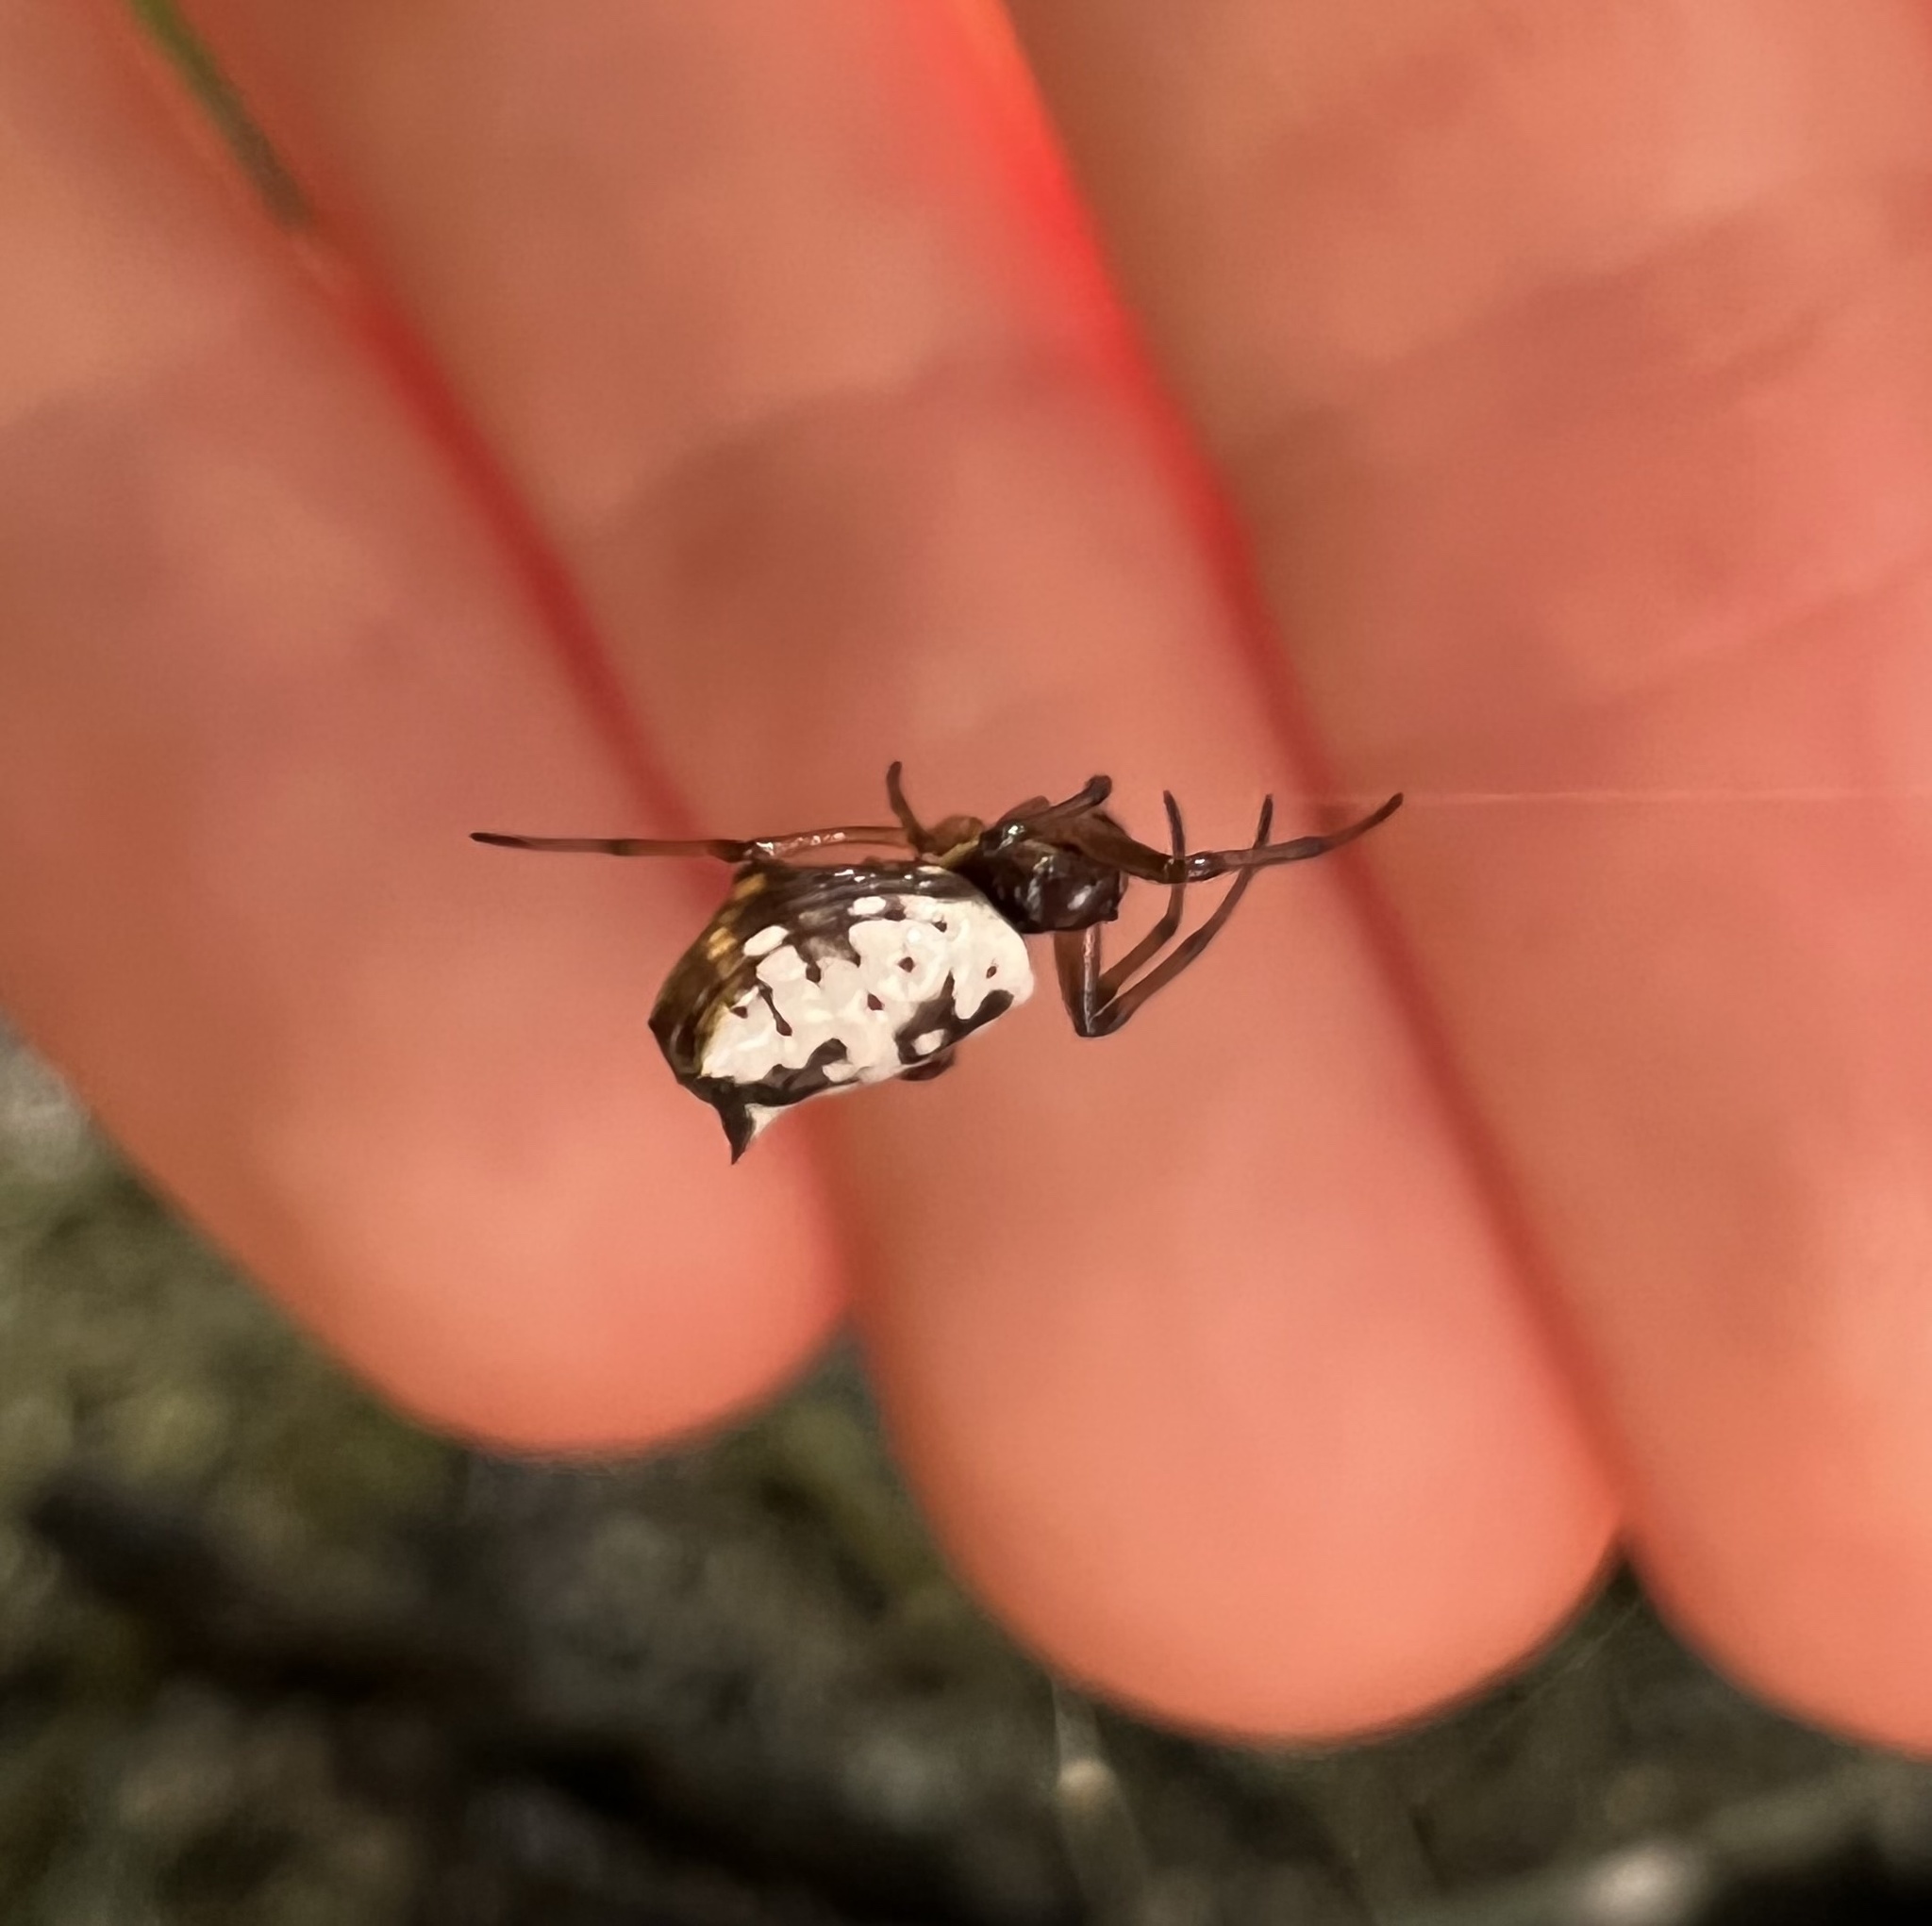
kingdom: Animalia
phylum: Arthropoda
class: Arachnida
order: Araneae
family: Araneidae
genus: Micrathena
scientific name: Micrathena mitrata
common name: Orb weavers
